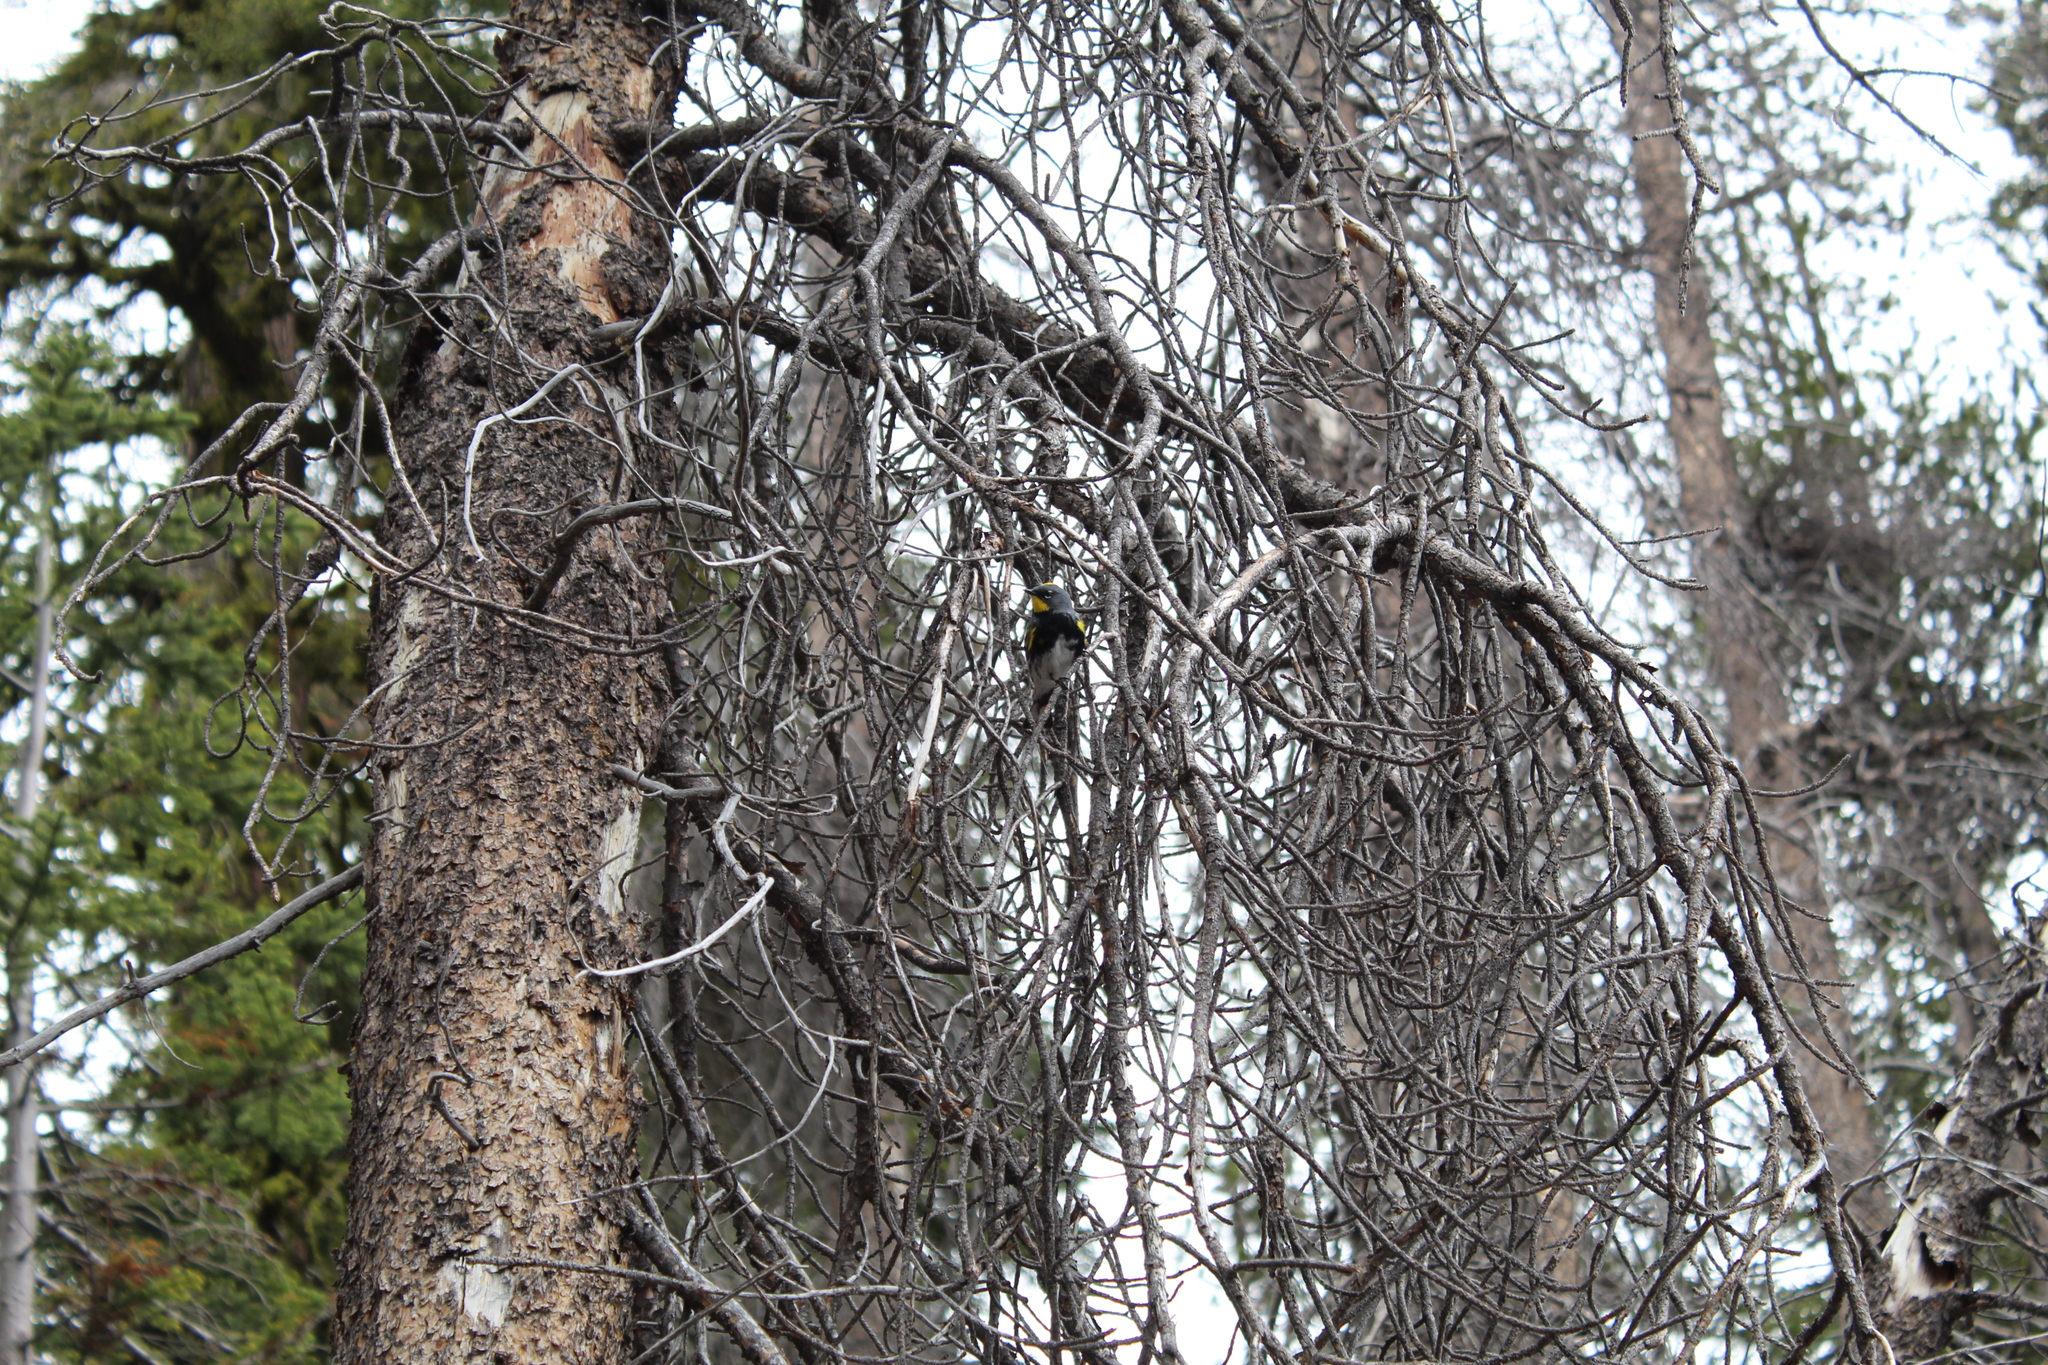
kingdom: Animalia
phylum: Chordata
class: Aves
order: Passeriformes
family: Parulidae
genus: Setophaga
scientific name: Setophaga coronata
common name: Myrtle warbler
